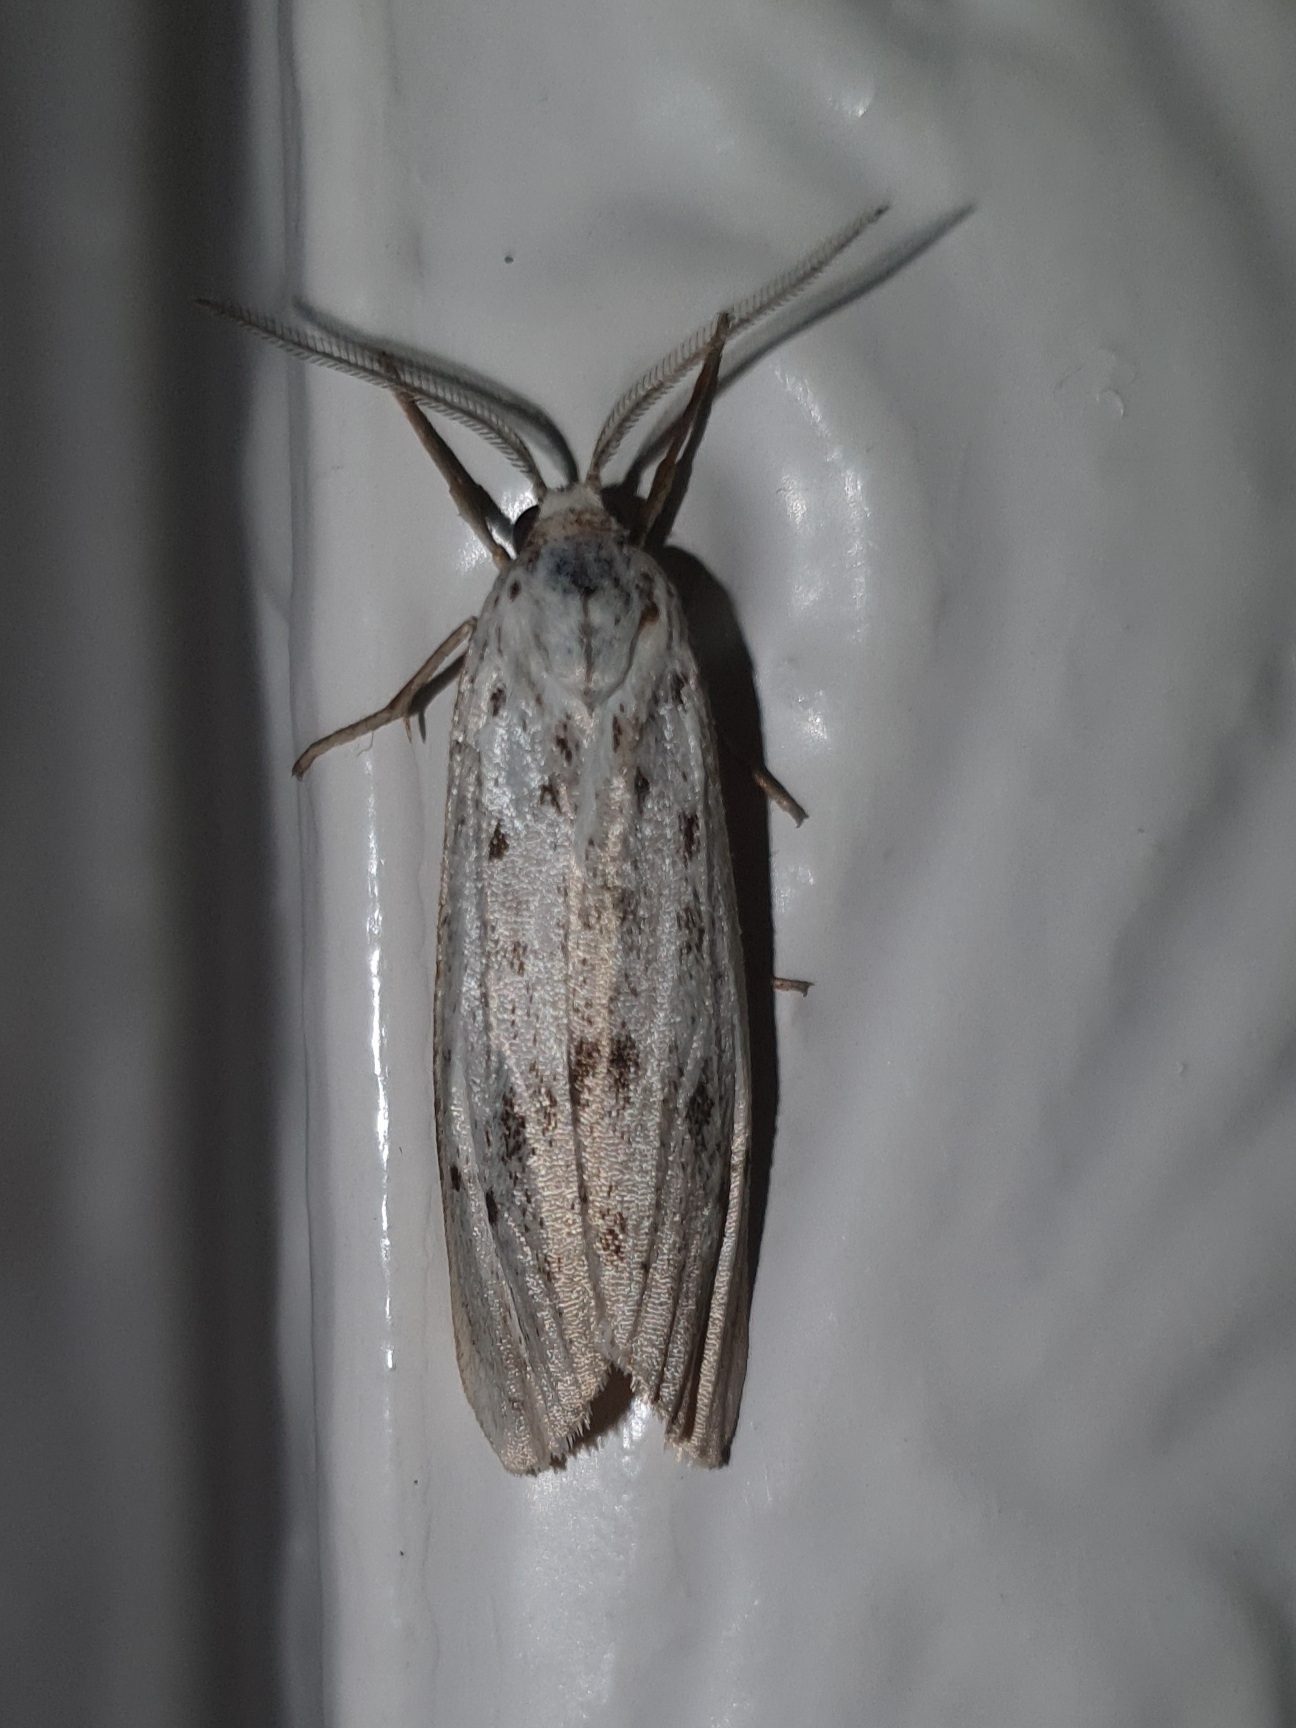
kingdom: Animalia
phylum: Arthropoda
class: Insecta
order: Lepidoptera
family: Erebidae
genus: Coscinia
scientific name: Coscinia cribraria
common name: Speckled footman
